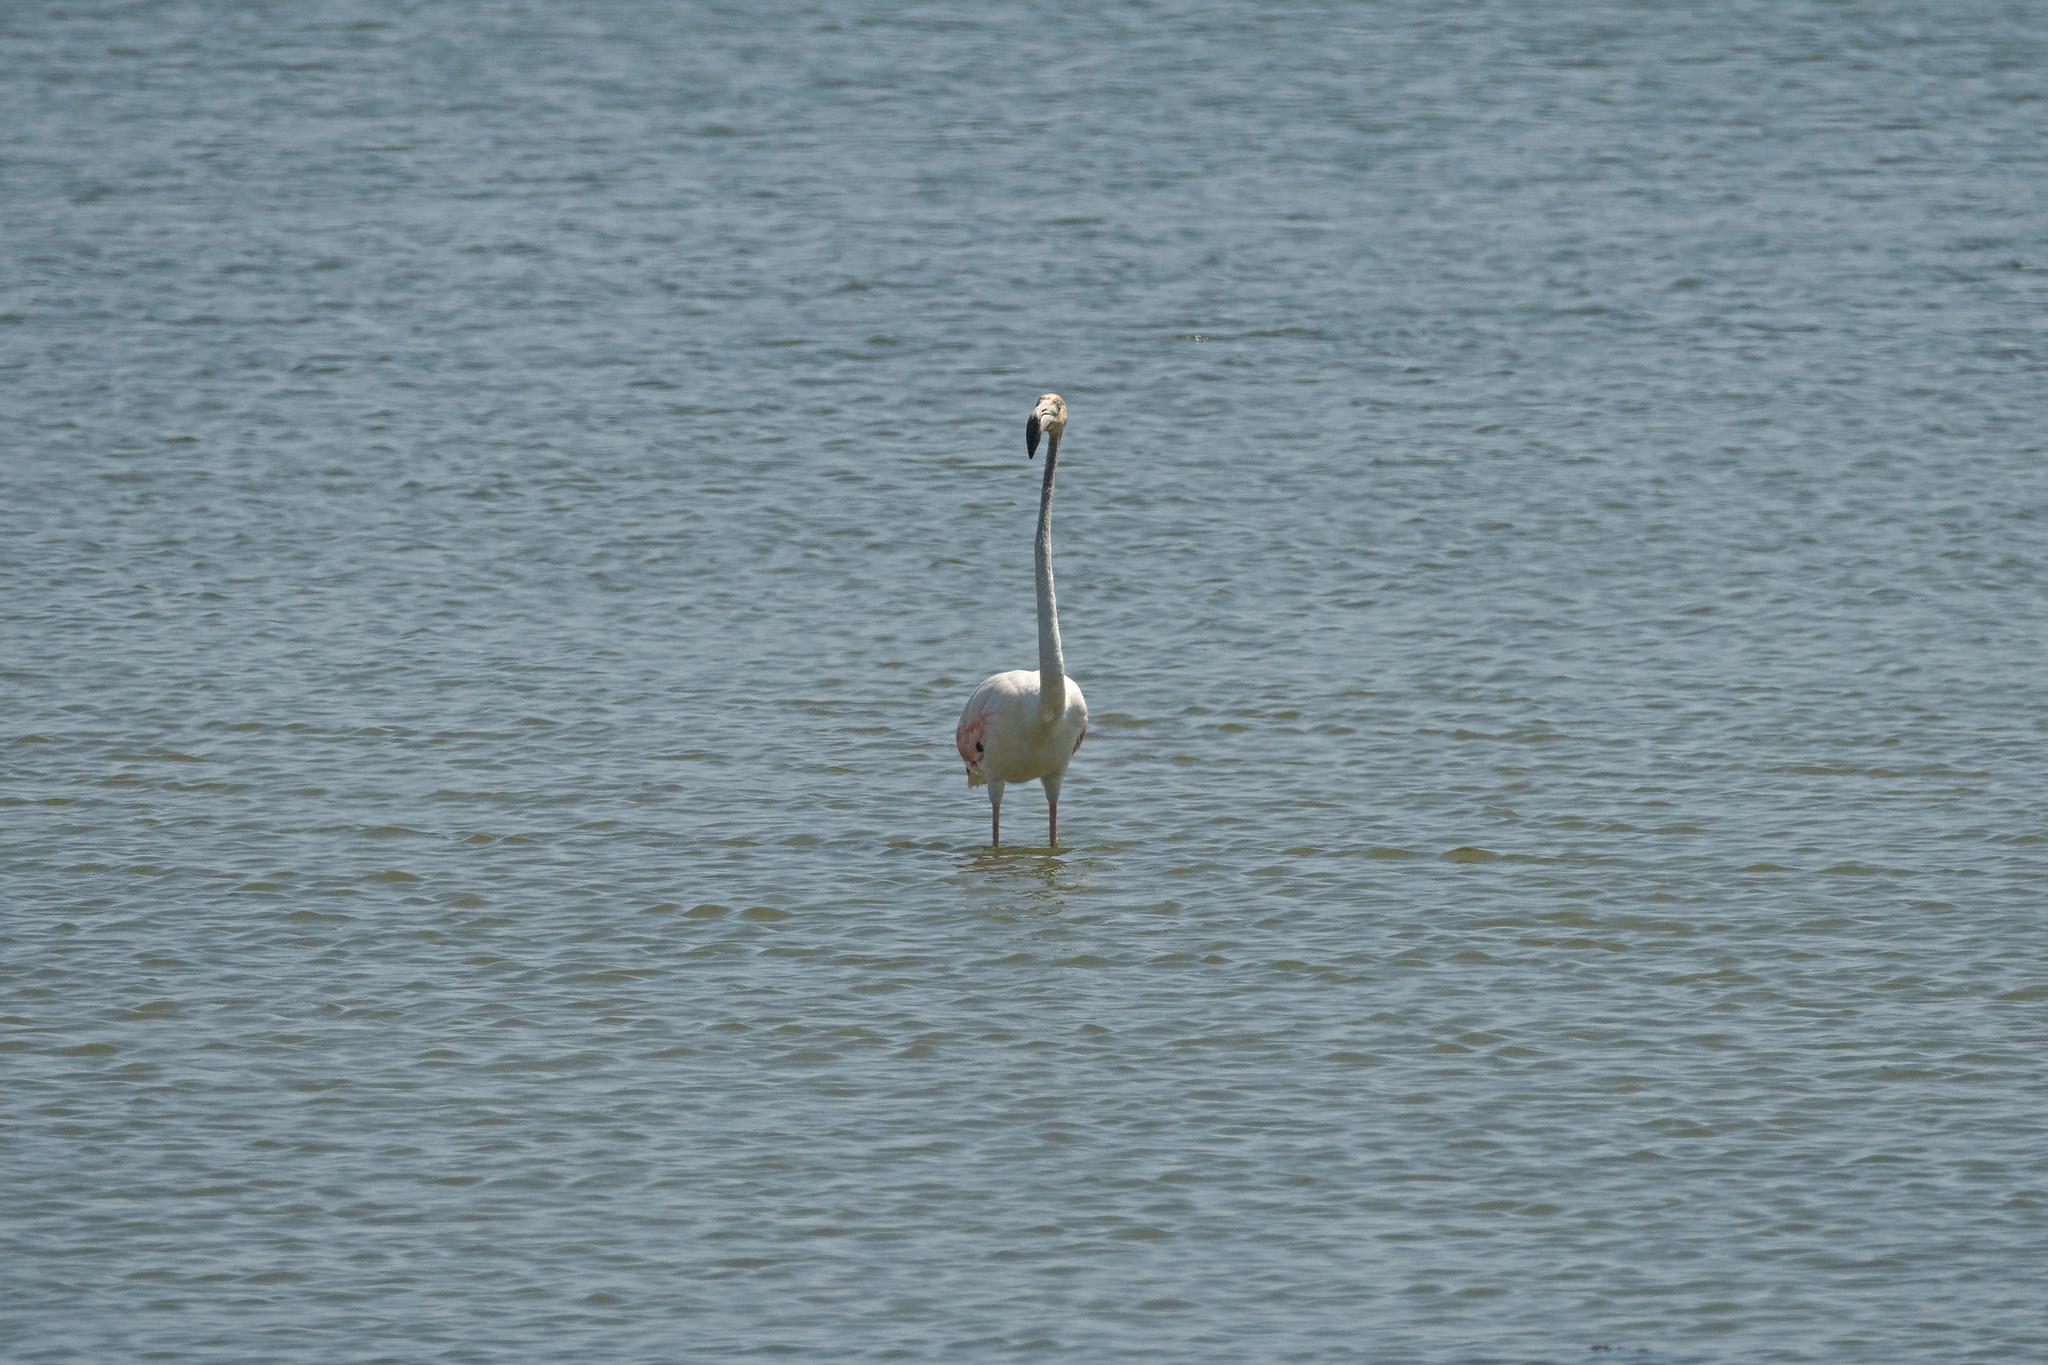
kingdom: Animalia
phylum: Chordata
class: Aves
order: Phoenicopteriformes
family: Phoenicopteridae
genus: Phoenicopterus
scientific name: Phoenicopterus roseus
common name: Greater flamingo
